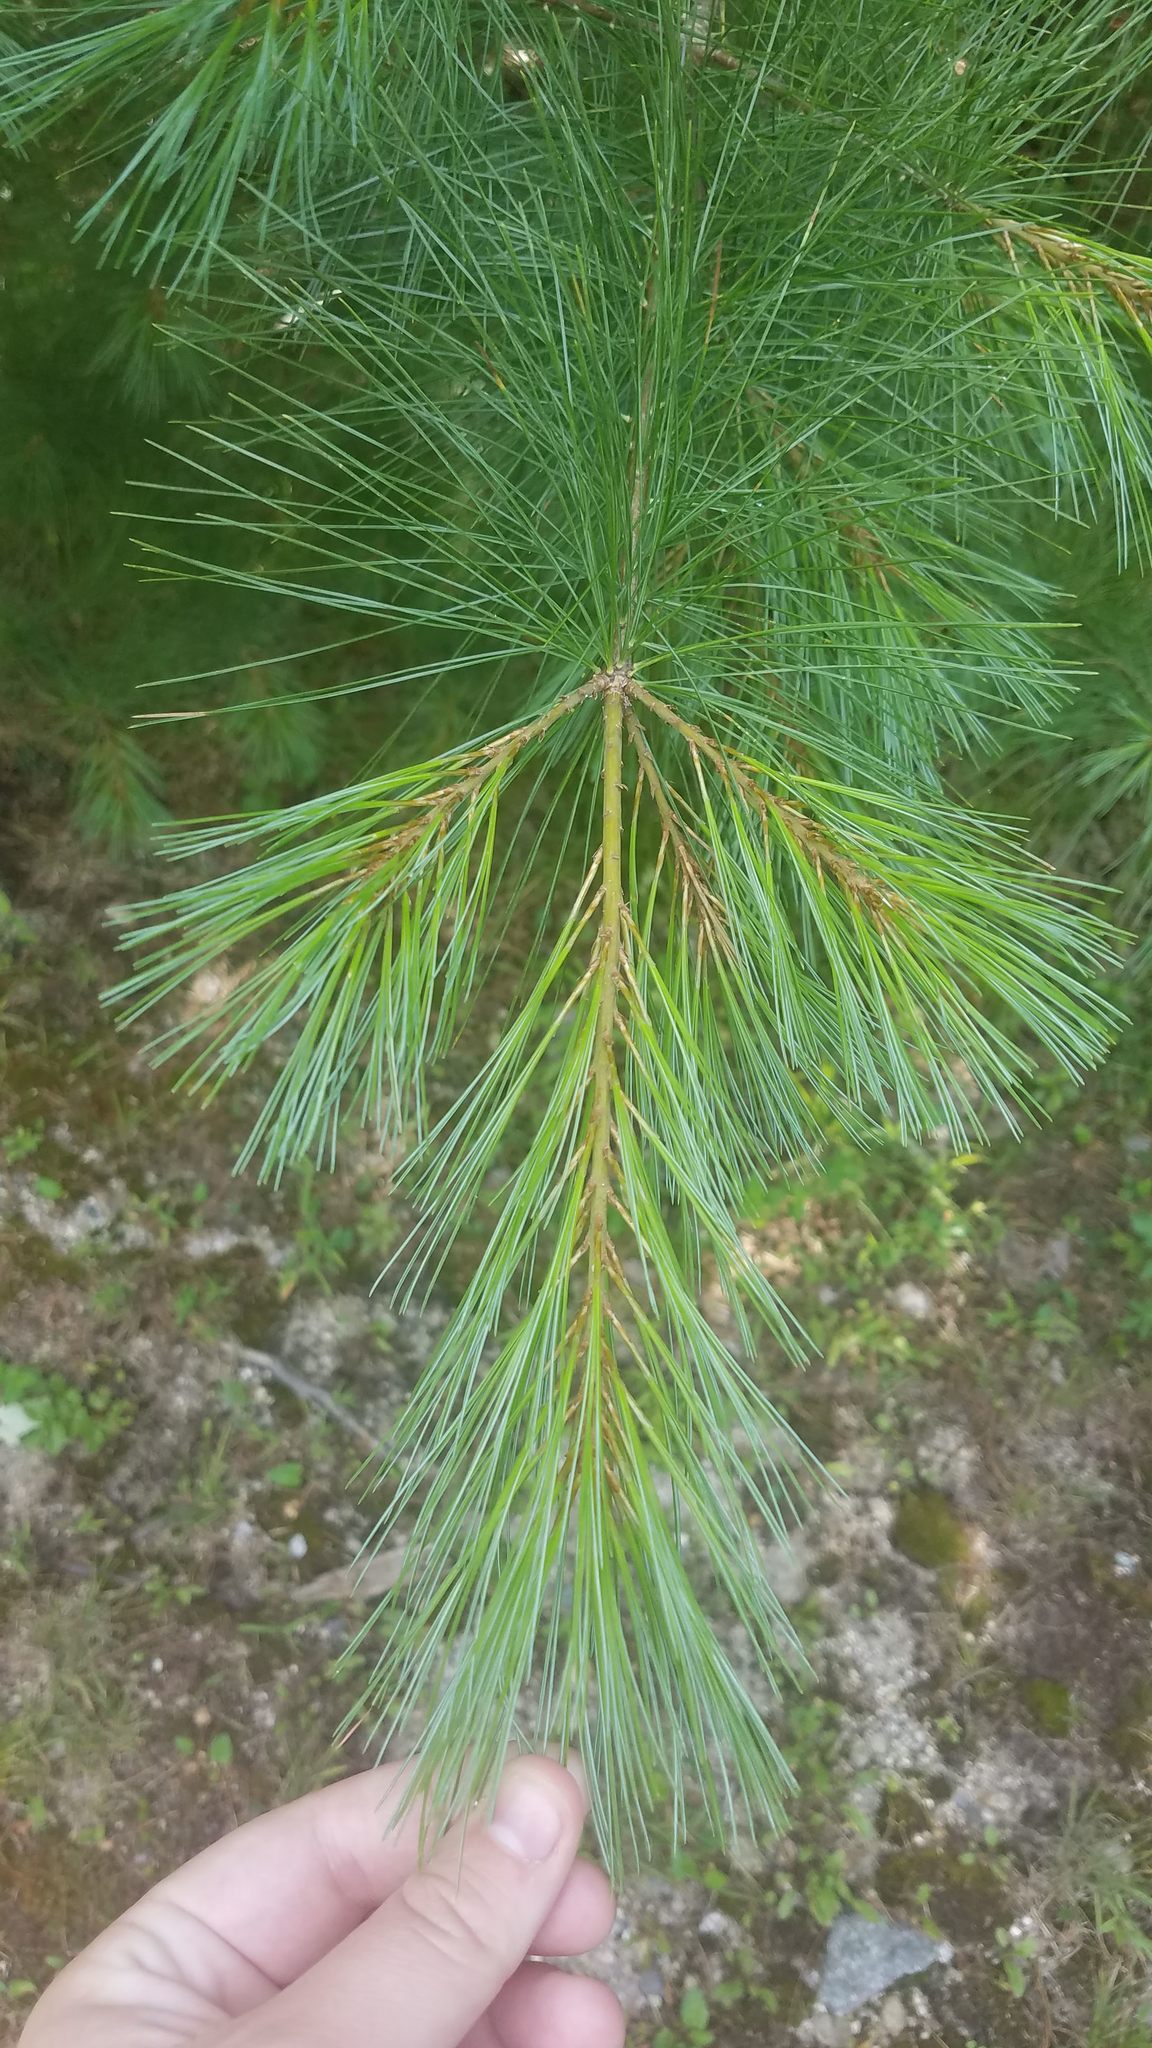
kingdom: Plantae
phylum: Tracheophyta
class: Pinopsida
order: Pinales
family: Pinaceae
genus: Pinus
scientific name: Pinus strobus
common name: Weymouth pine
